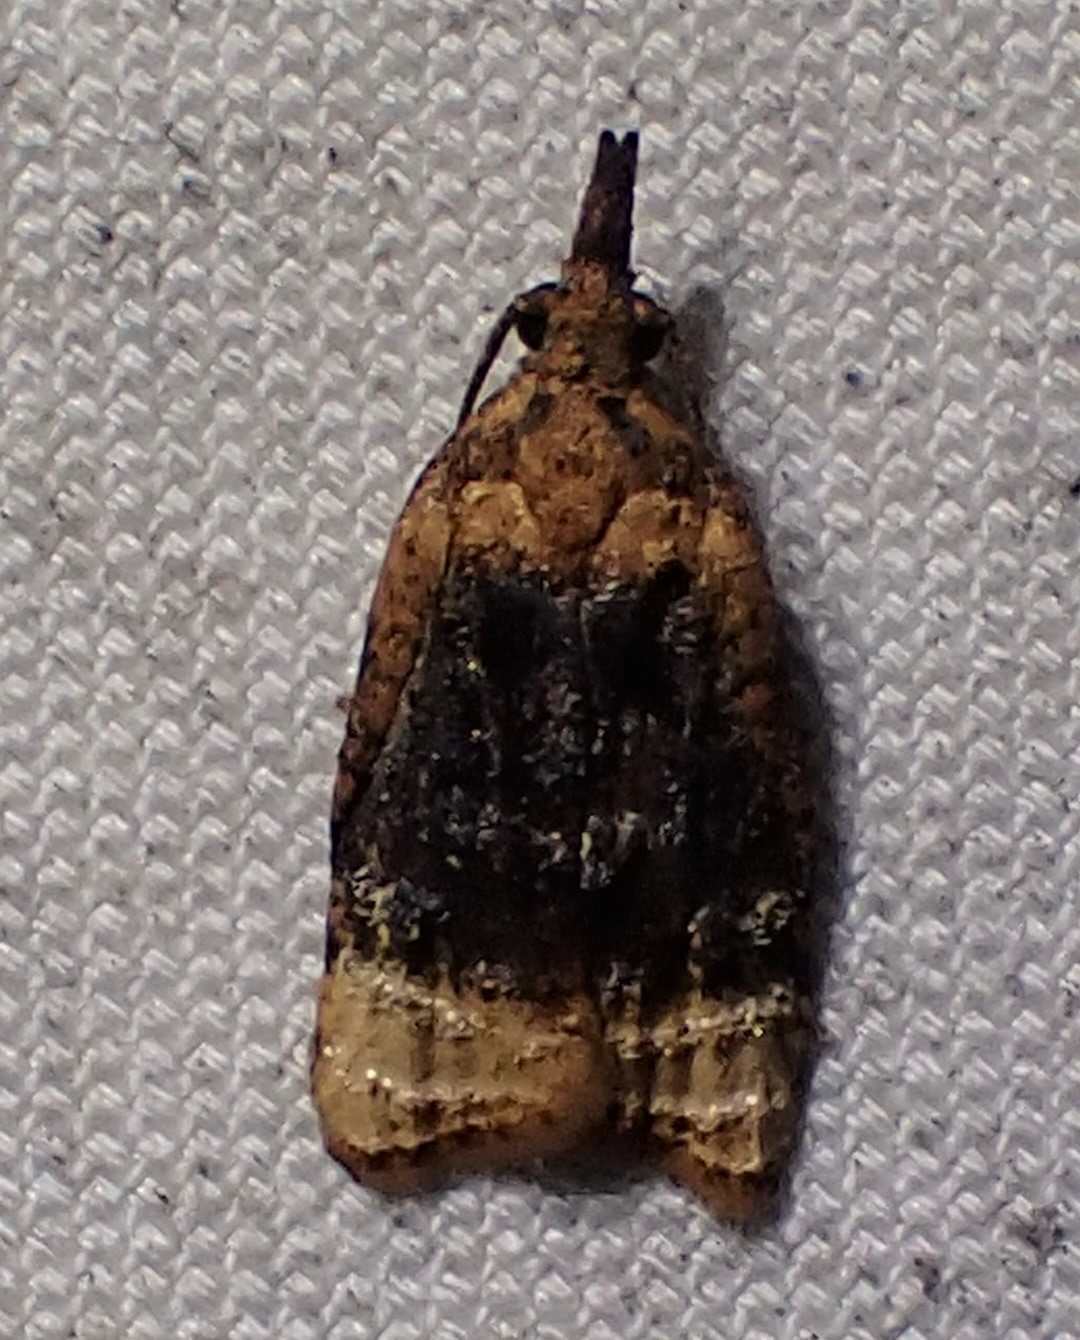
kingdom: Animalia
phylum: Arthropoda
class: Insecta
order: Lepidoptera
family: Tortricidae
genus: Platynota
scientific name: Platynota flavedana
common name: Black-shaded platynota moth
